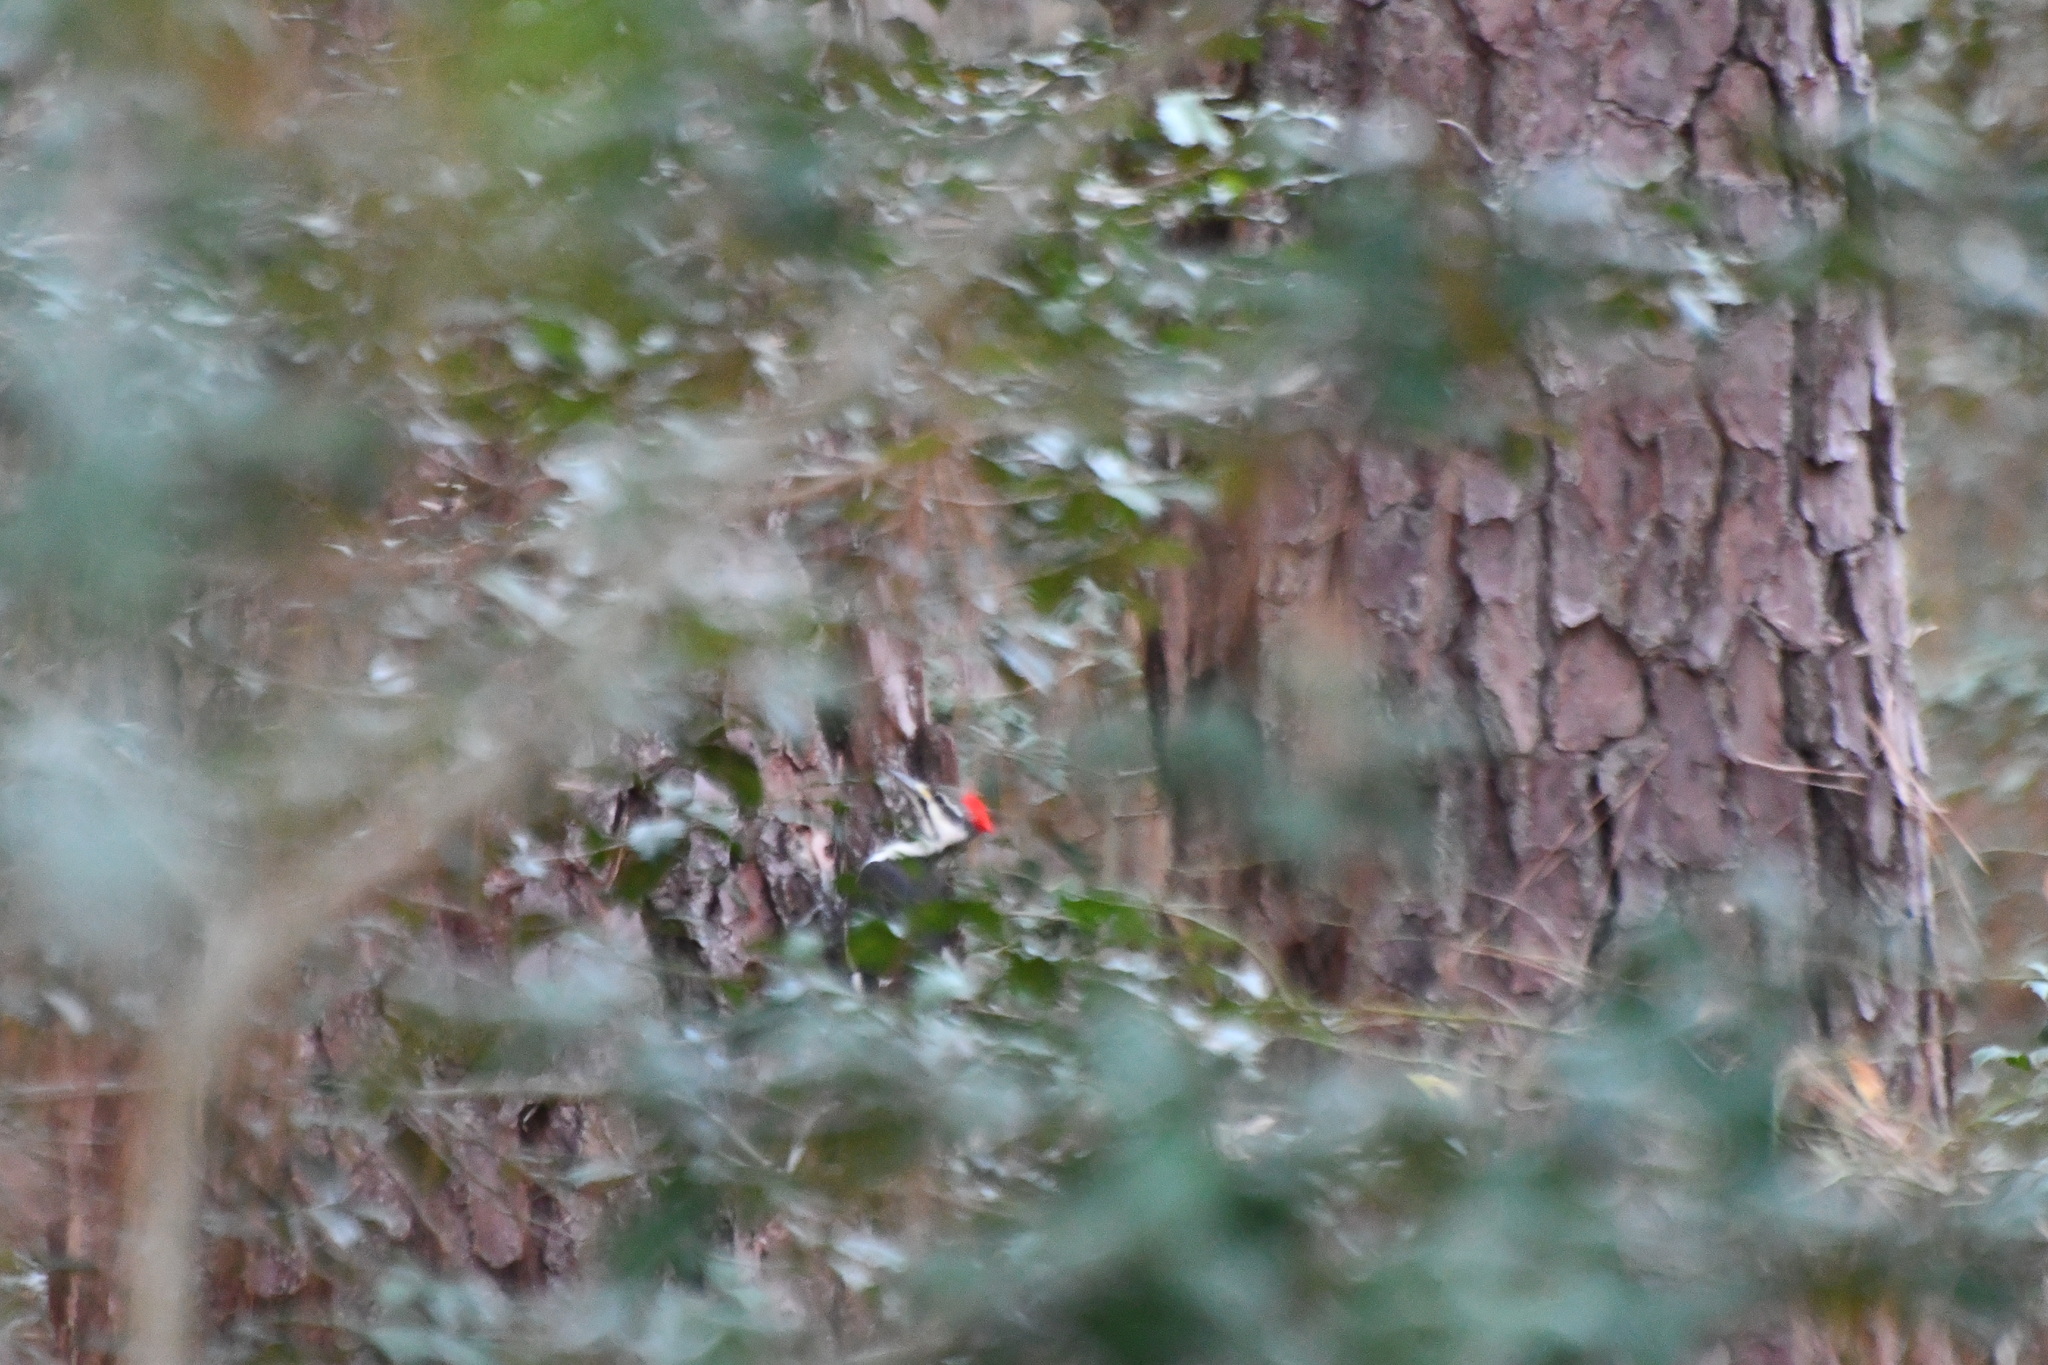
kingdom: Animalia
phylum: Chordata
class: Aves
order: Piciformes
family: Picidae
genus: Dryocopus
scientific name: Dryocopus pileatus
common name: Pileated woodpecker
